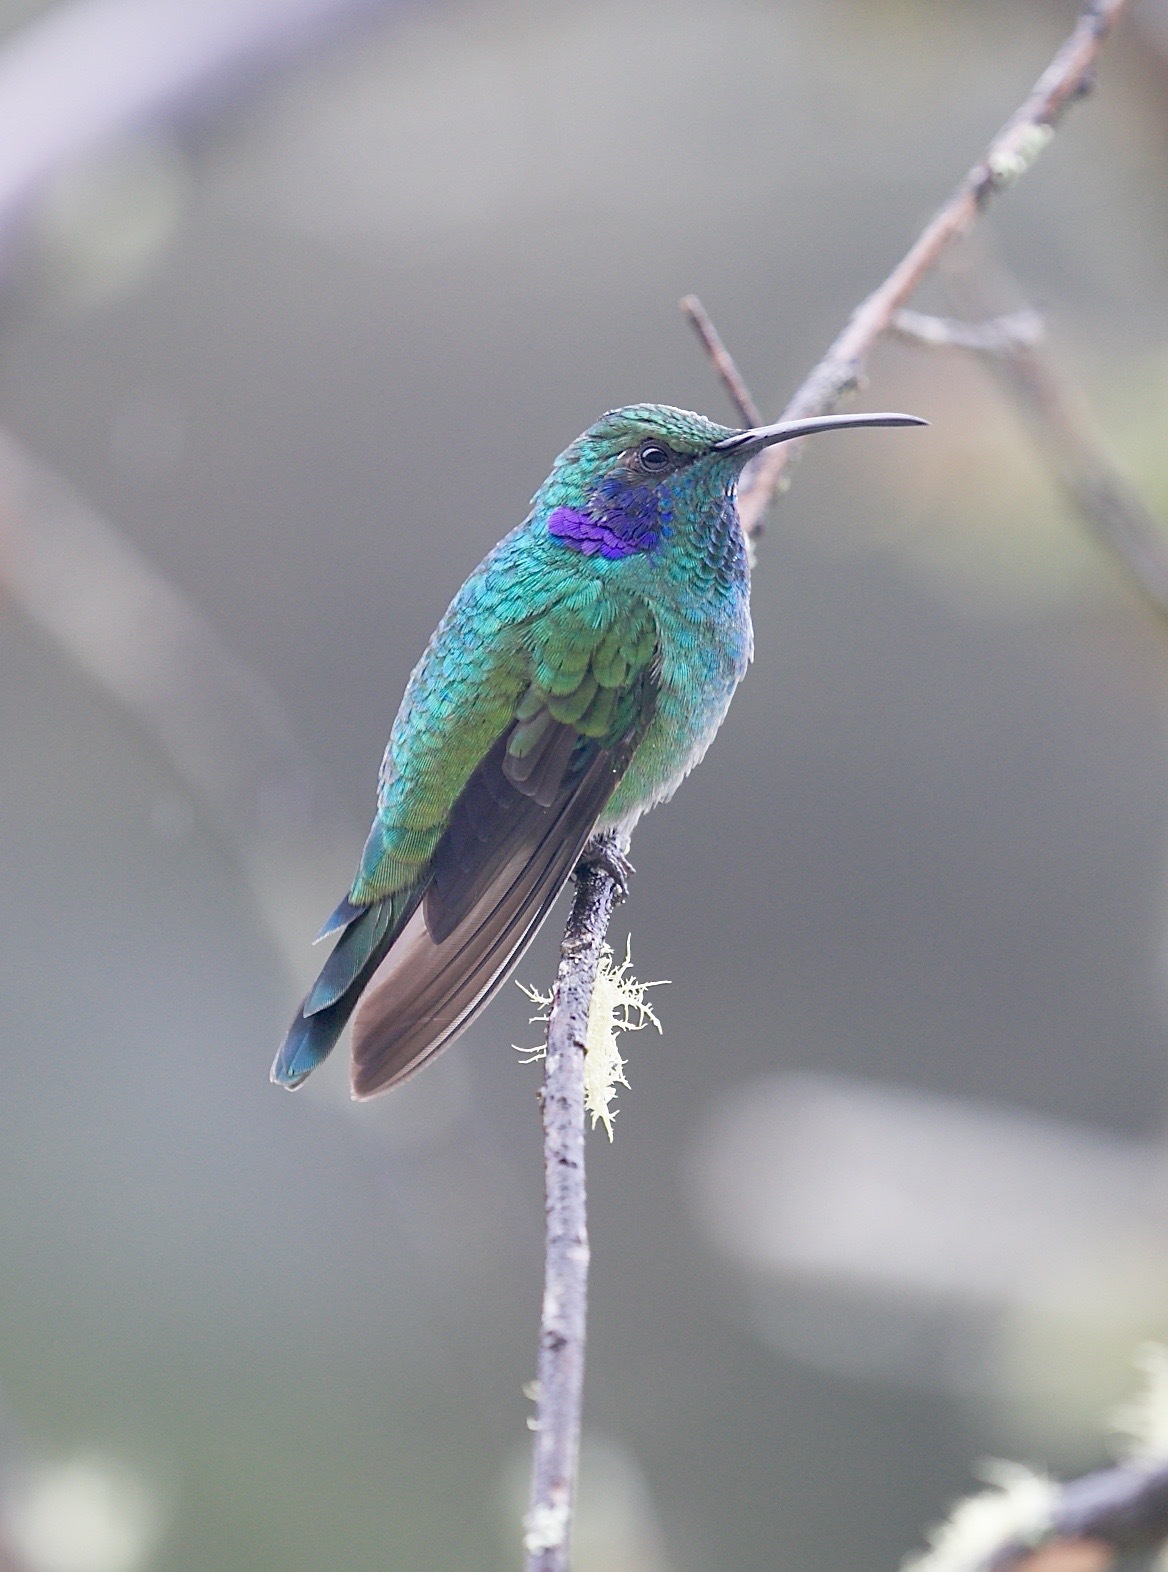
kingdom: Animalia
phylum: Chordata
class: Aves
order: Apodiformes
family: Trochilidae
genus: Colibri
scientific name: Colibri cyanotus
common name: Lesser violetear
